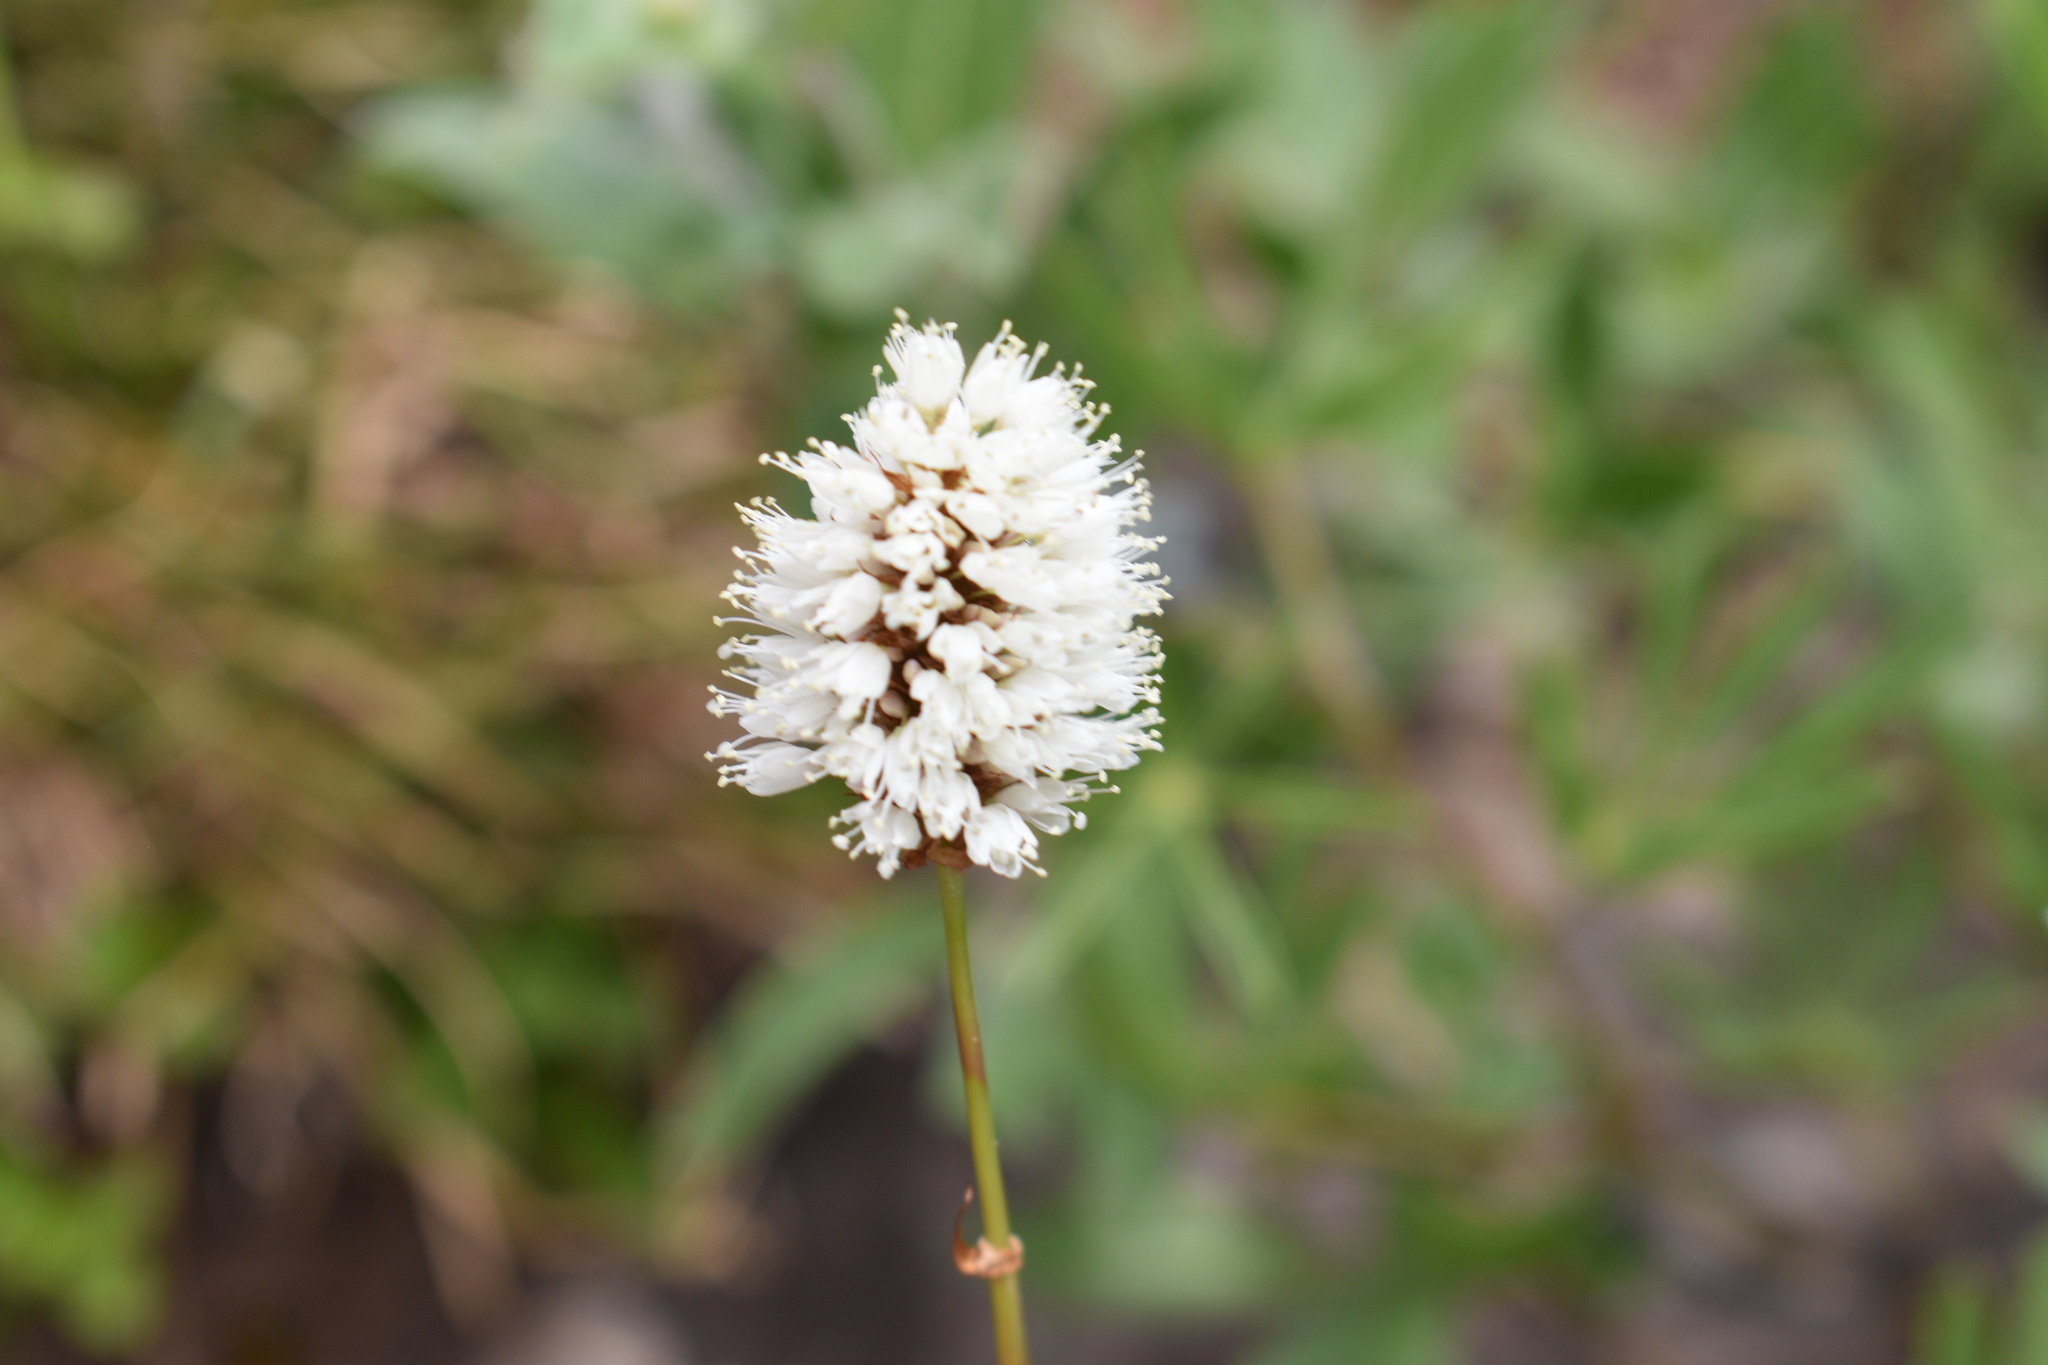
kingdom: Plantae
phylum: Tracheophyta
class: Magnoliopsida
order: Caryophyllales
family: Polygonaceae
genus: Bistorta
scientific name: Bistorta bistortoides
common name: American bistort
